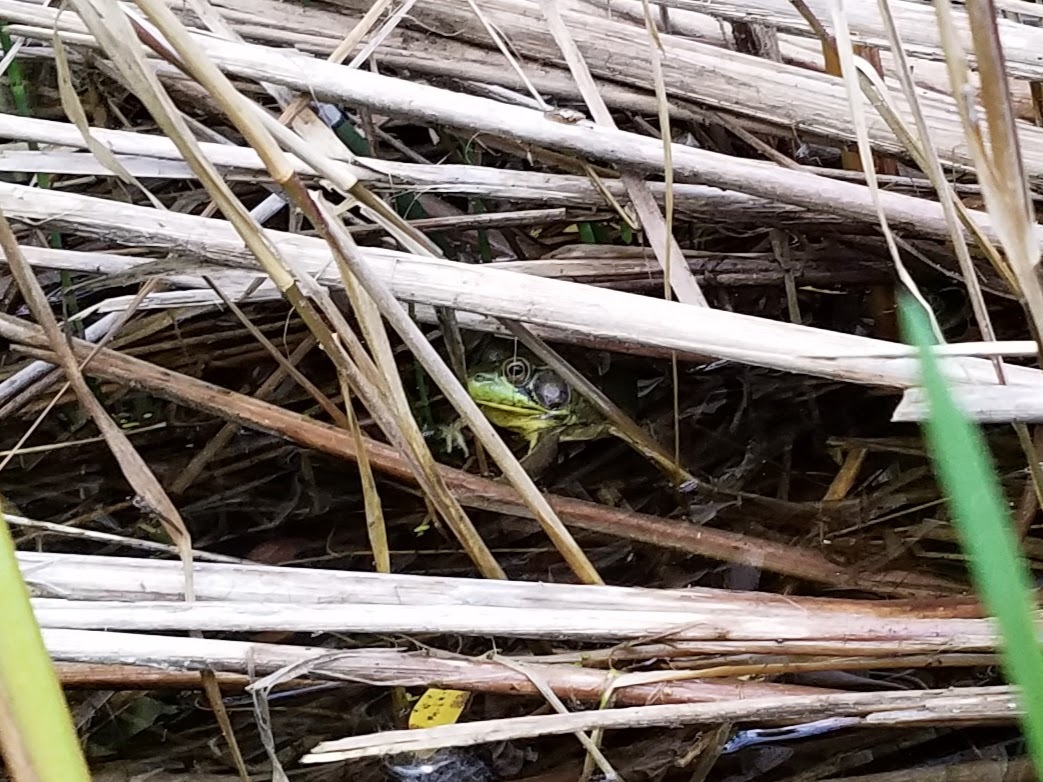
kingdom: Animalia
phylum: Chordata
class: Amphibia
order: Anura
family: Ranidae
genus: Lithobates
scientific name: Lithobates clamitans
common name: Green frog
